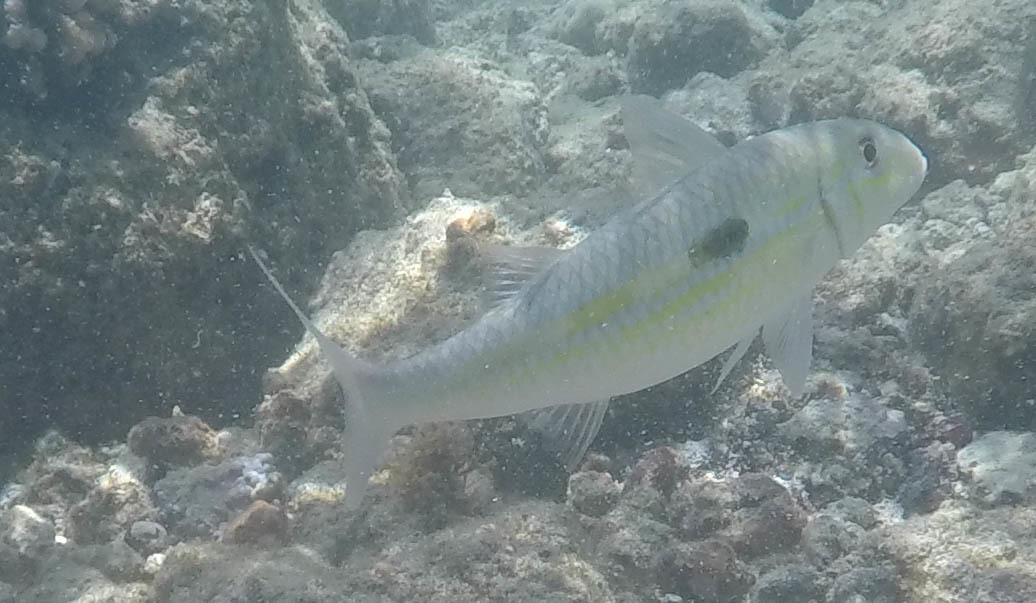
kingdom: Animalia
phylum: Chordata
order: Perciformes
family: Mullidae
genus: Mulloidichthys
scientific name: Mulloidichthys flavolineatus
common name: Yellowstripe goatfish
